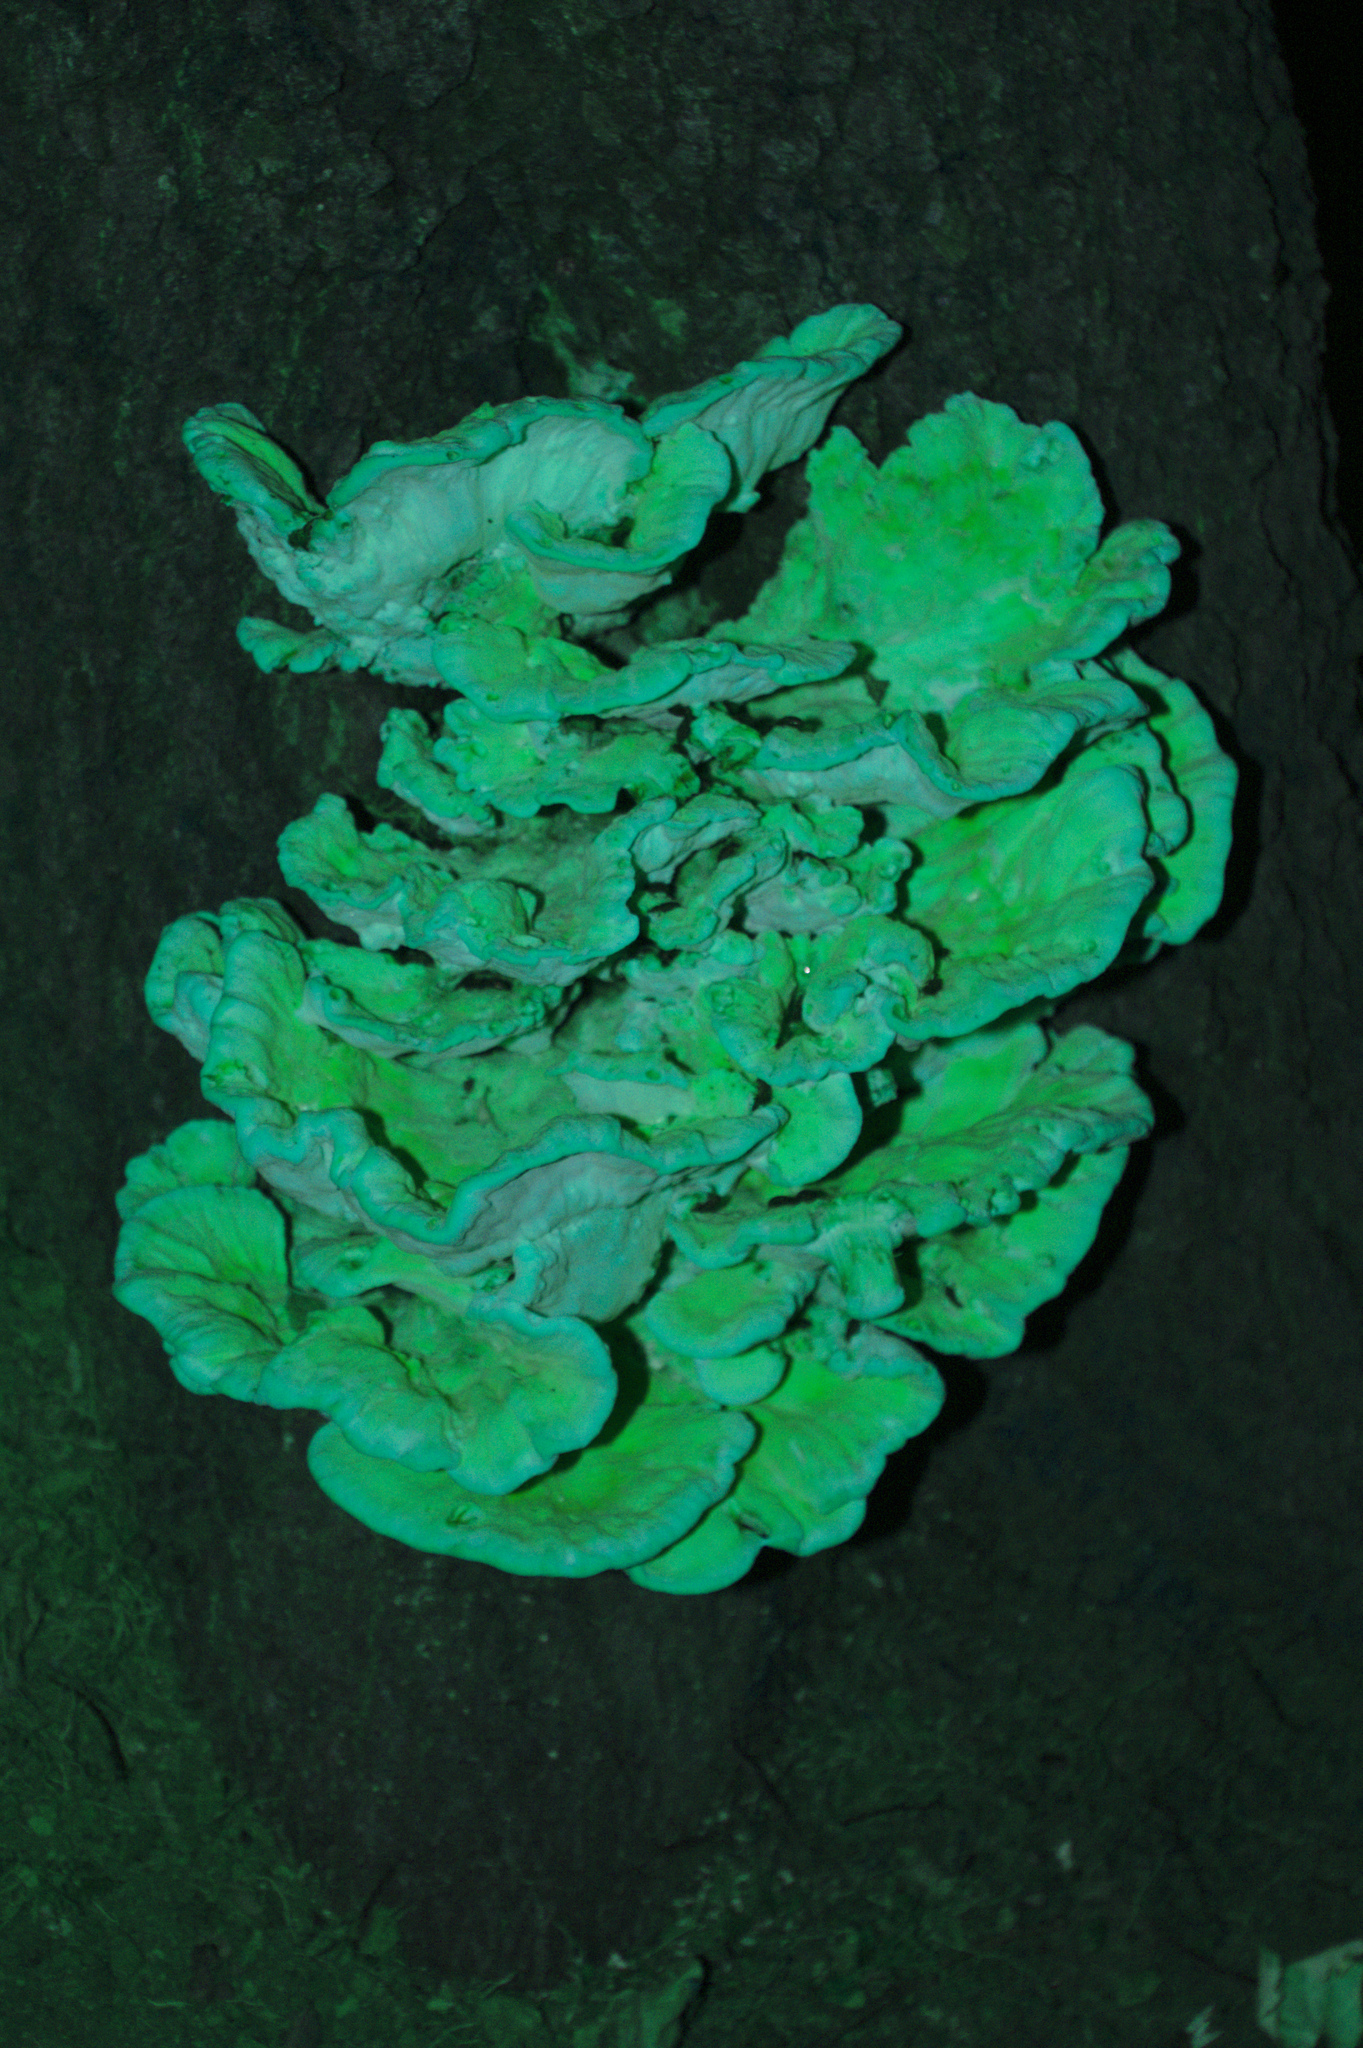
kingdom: Fungi
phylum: Basidiomycota
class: Agaricomycetes
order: Polyporales
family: Laetiporaceae
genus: Laetiporus
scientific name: Laetiporus sulphureus
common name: Chicken of the woods
